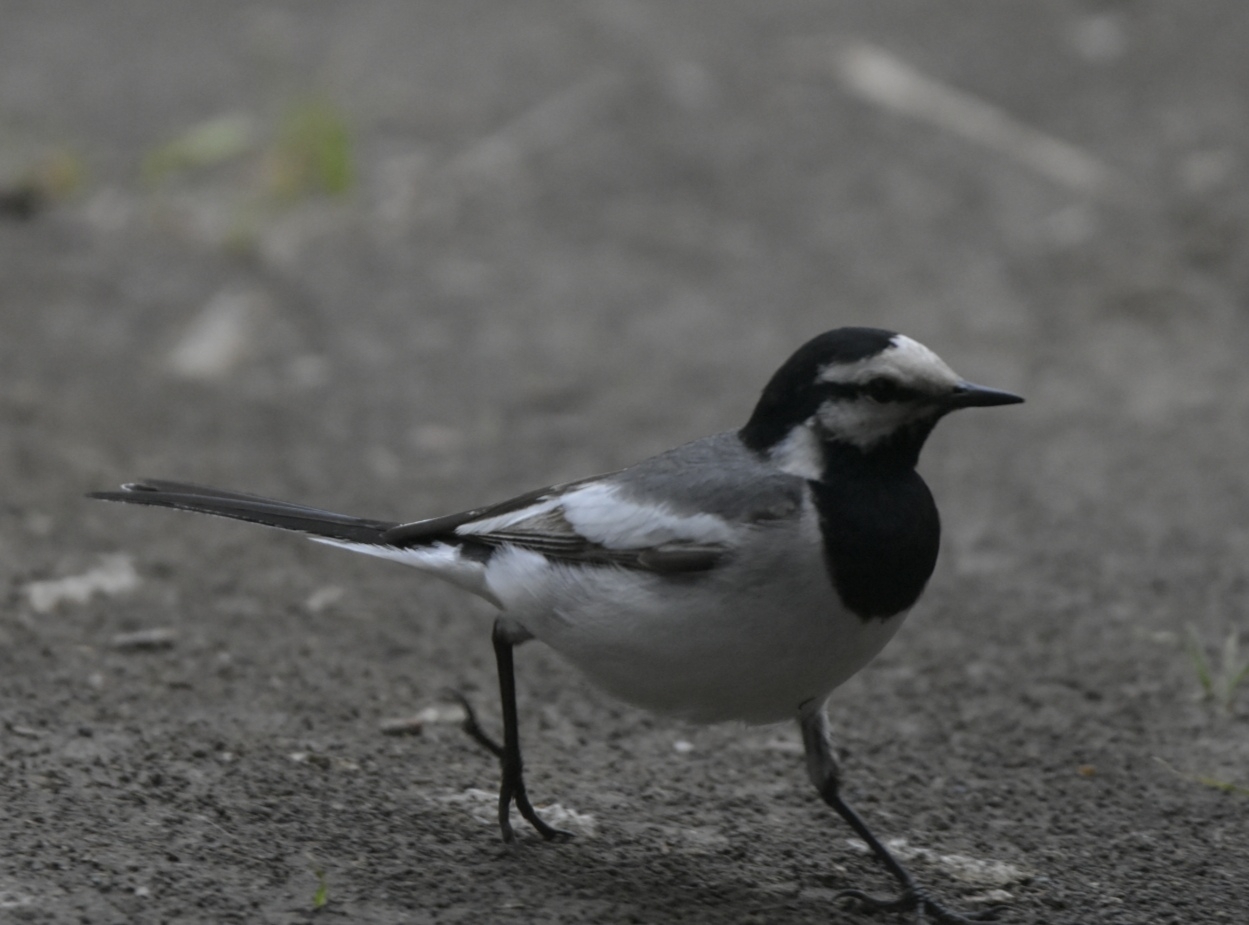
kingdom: Animalia
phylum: Chordata
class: Aves
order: Passeriformes
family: Motacillidae
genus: Motacilla
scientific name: Motacilla alba
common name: White wagtail
